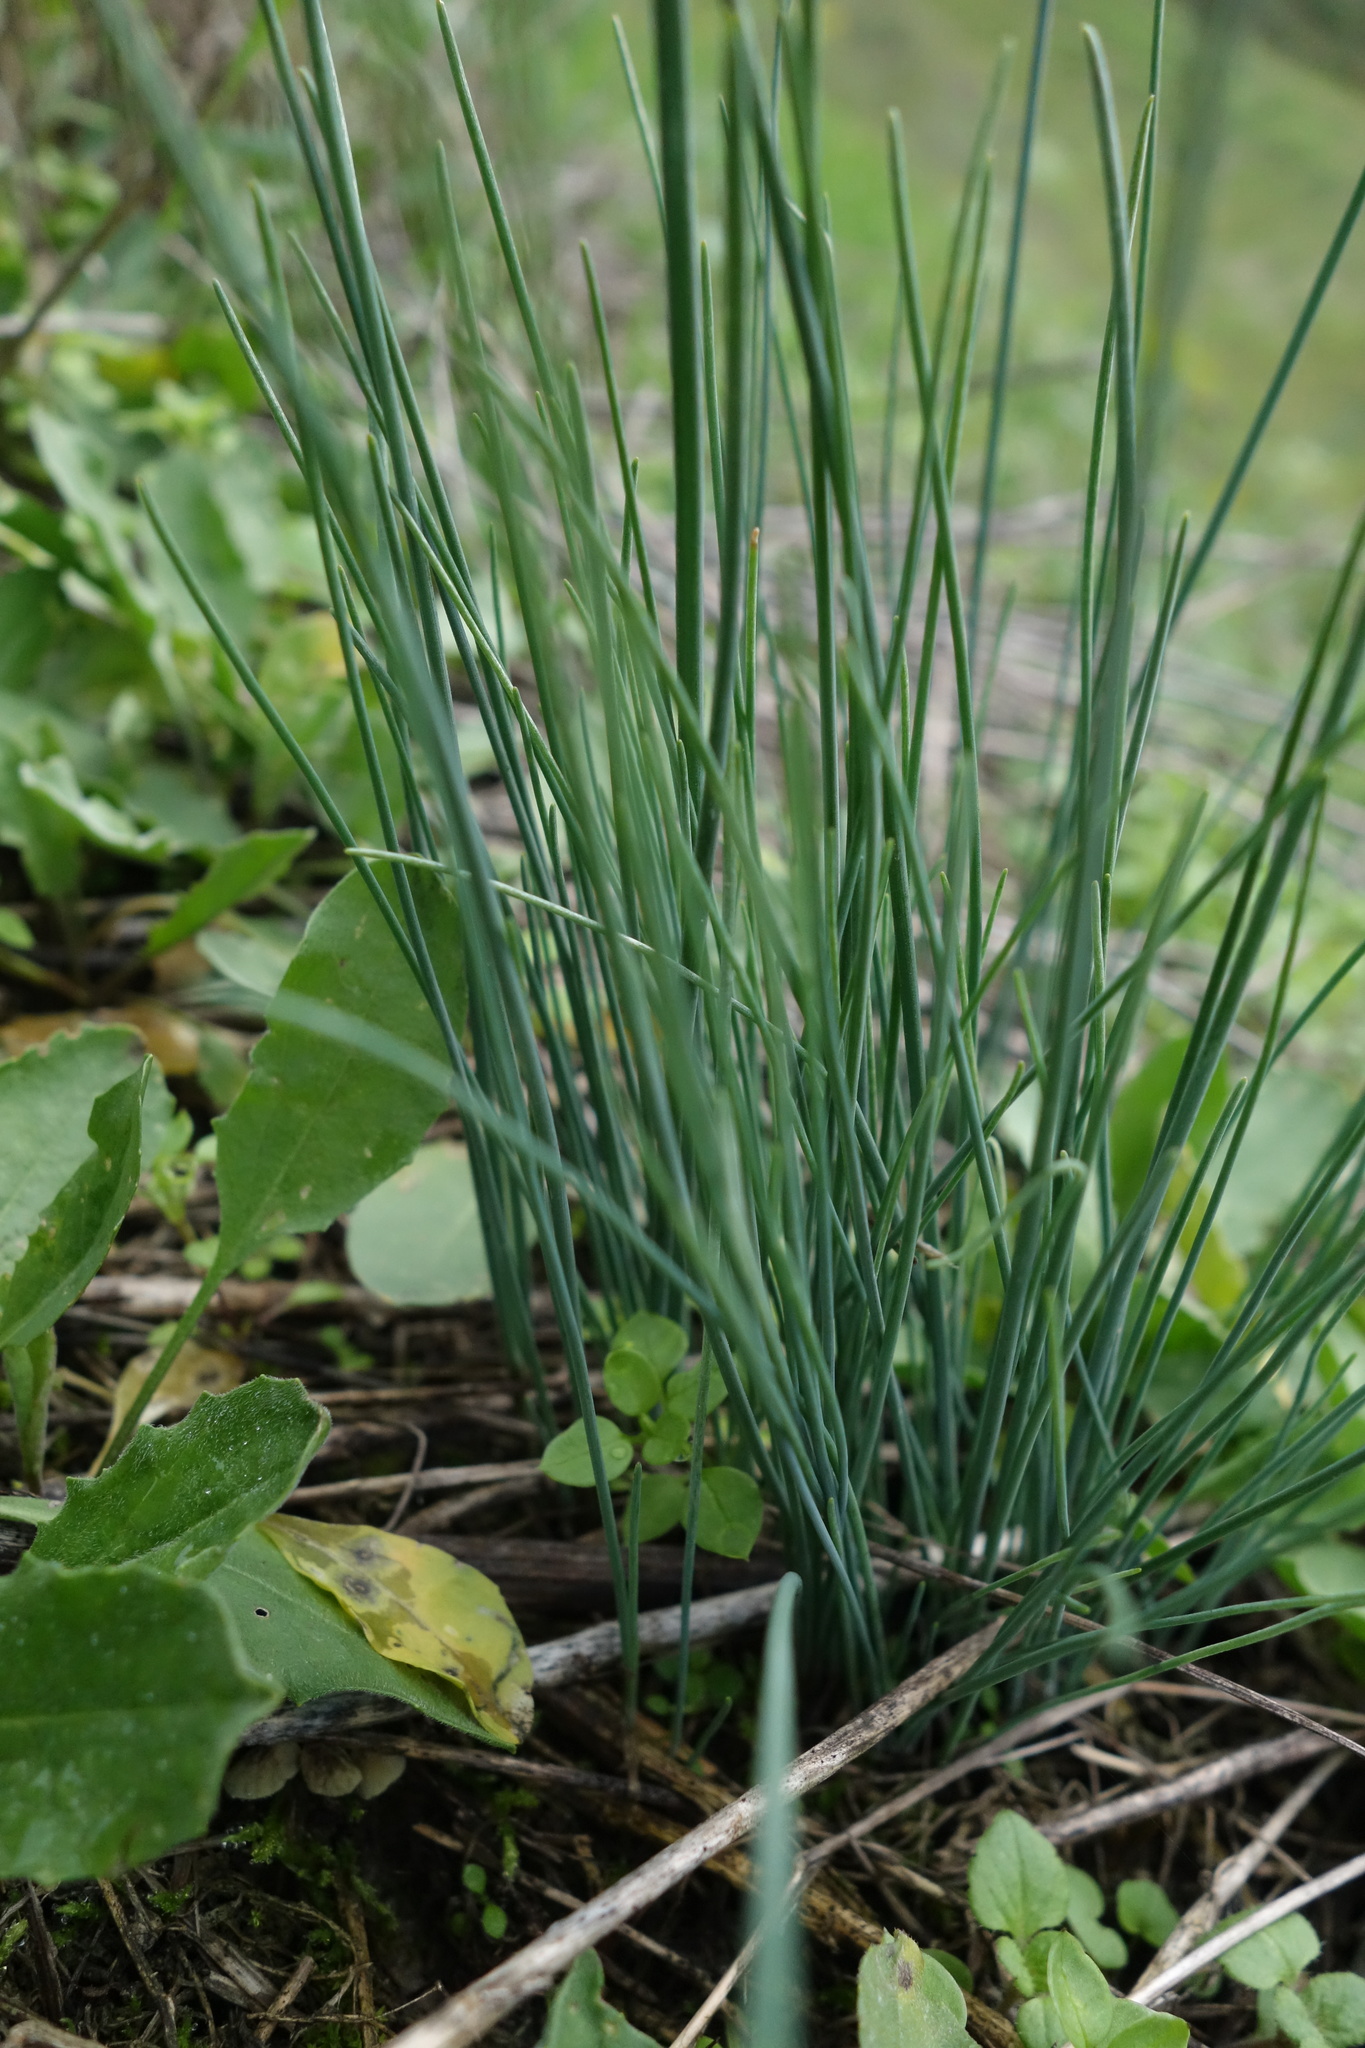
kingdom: Plantae
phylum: Tracheophyta
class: Liliopsida
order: Asparagales
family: Amaryllidaceae
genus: Allium
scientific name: Allium schoenoprasum
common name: Chives
